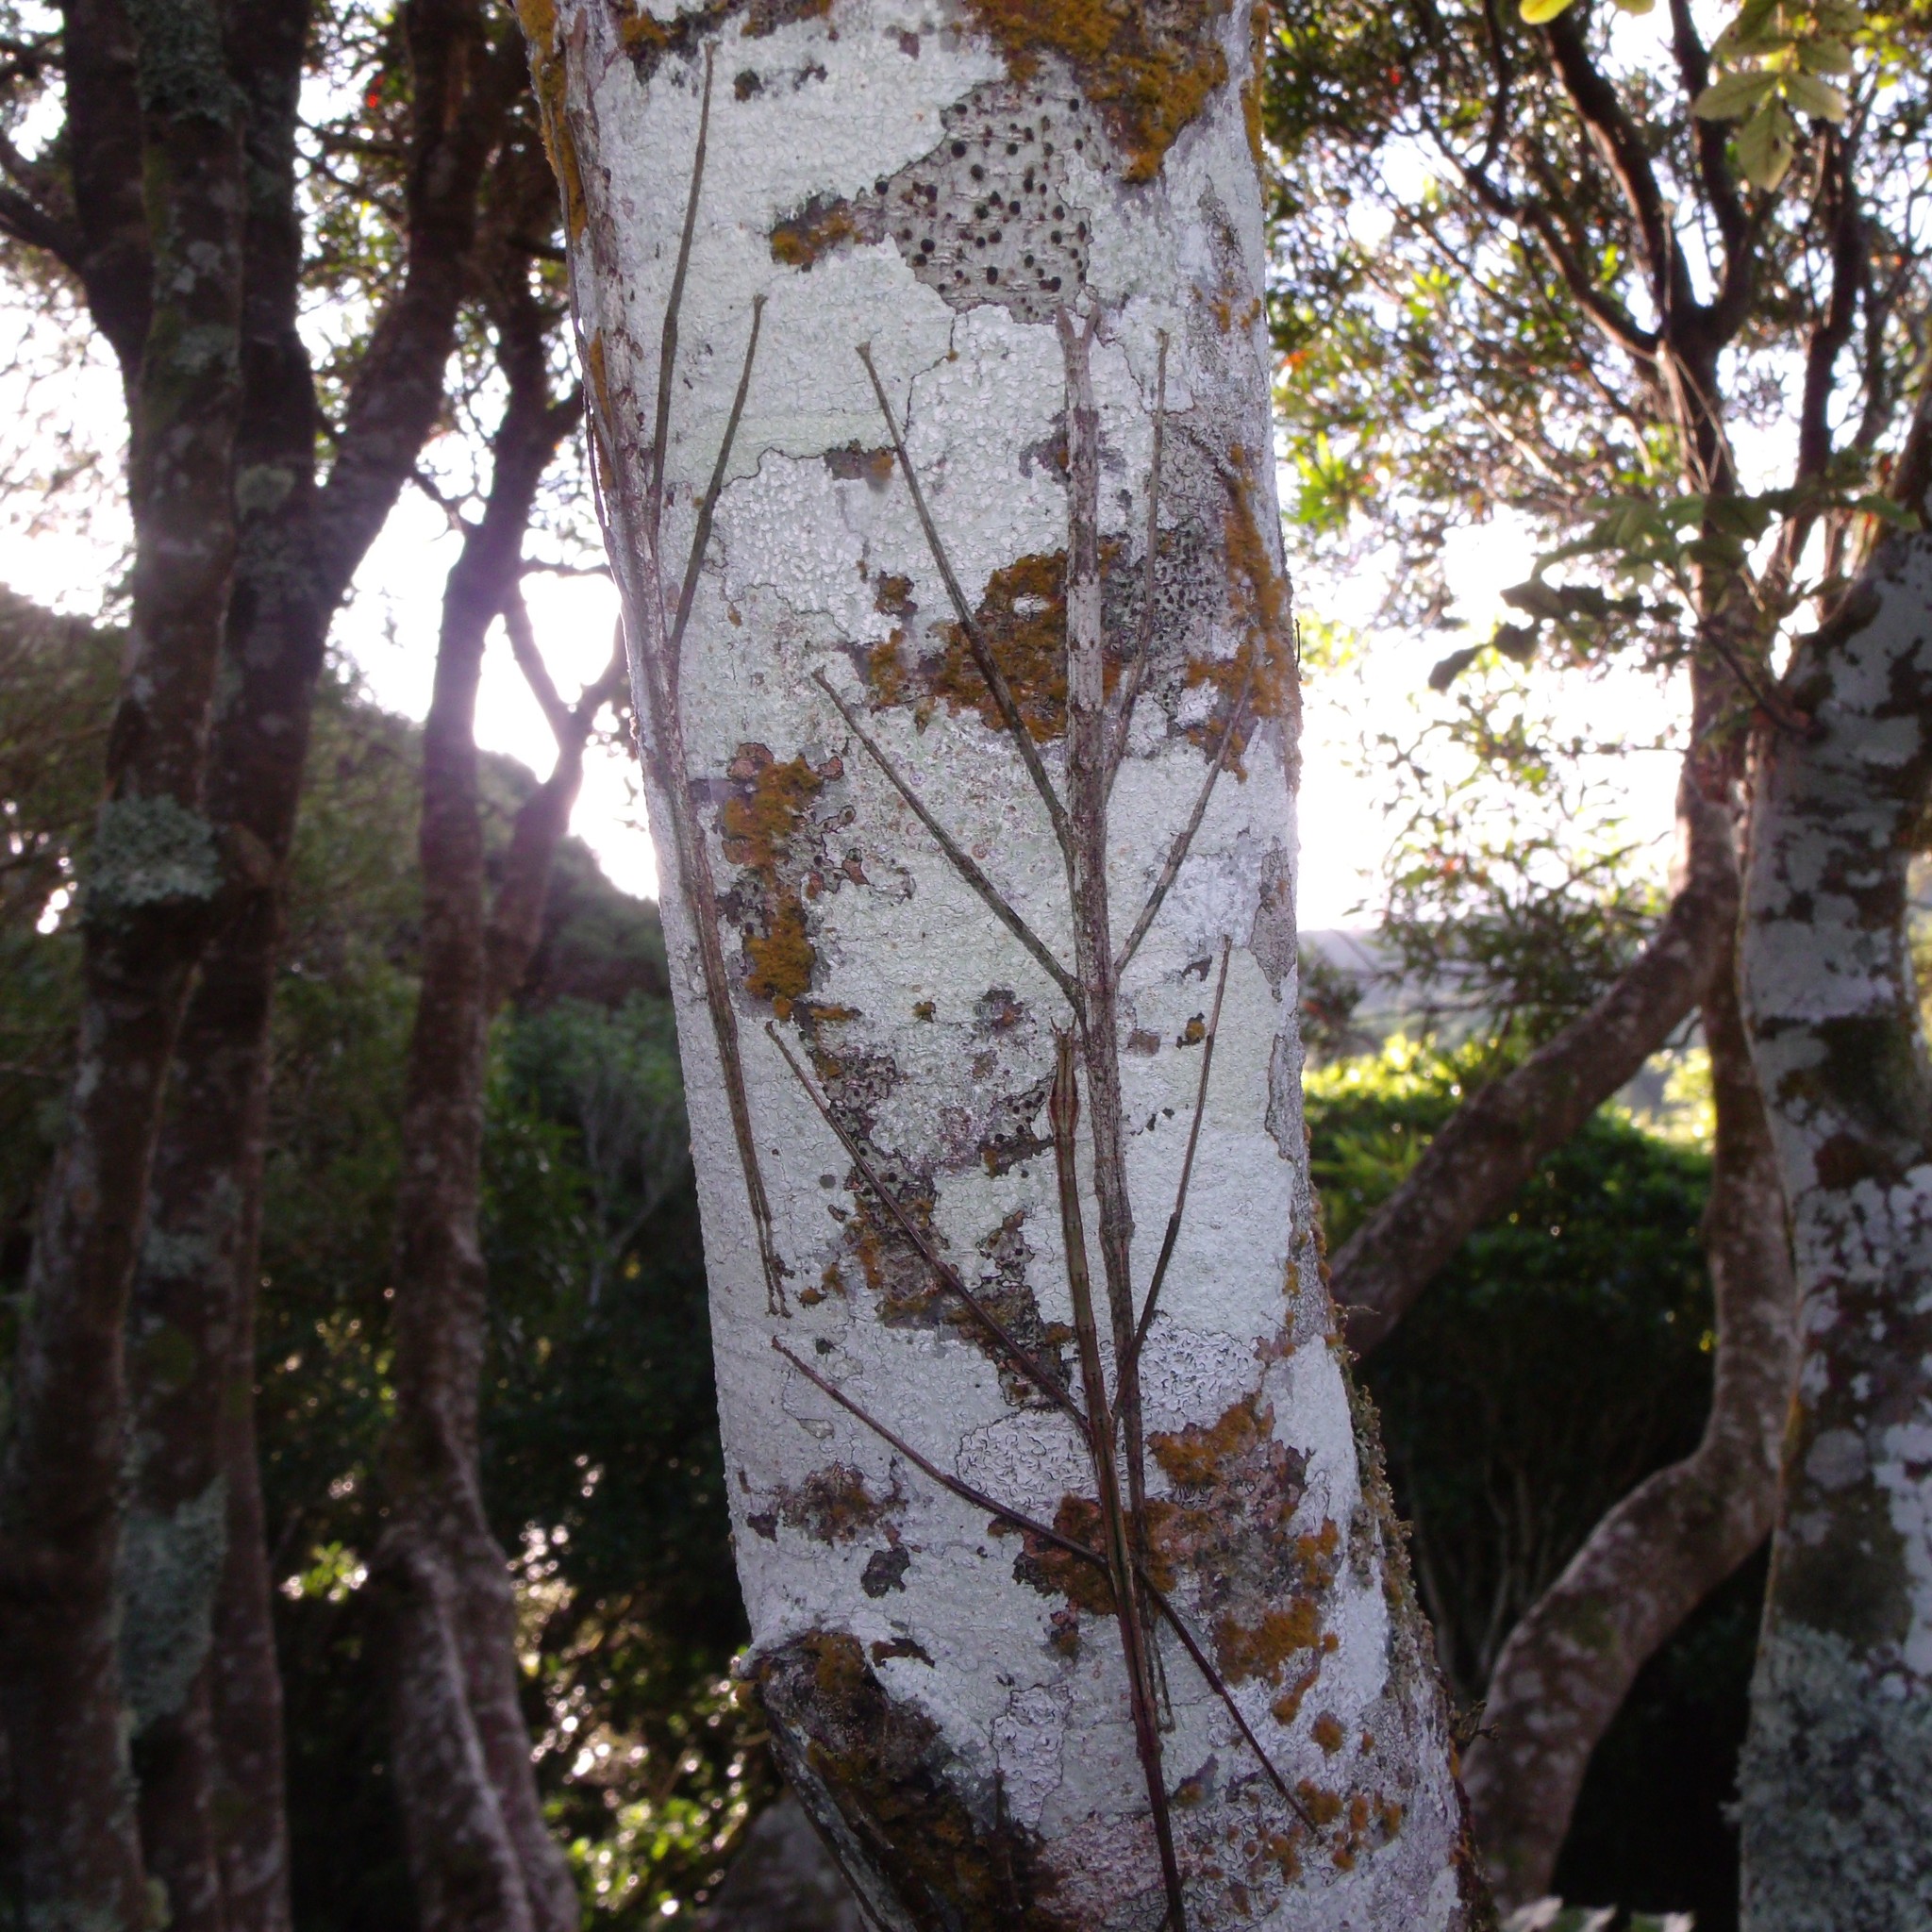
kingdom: Animalia
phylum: Arthropoda
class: Insecta
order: Phasmida
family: Phasmatidae
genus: Clitarchus
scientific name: Clitarchus hookeri
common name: Smooth stick insect
